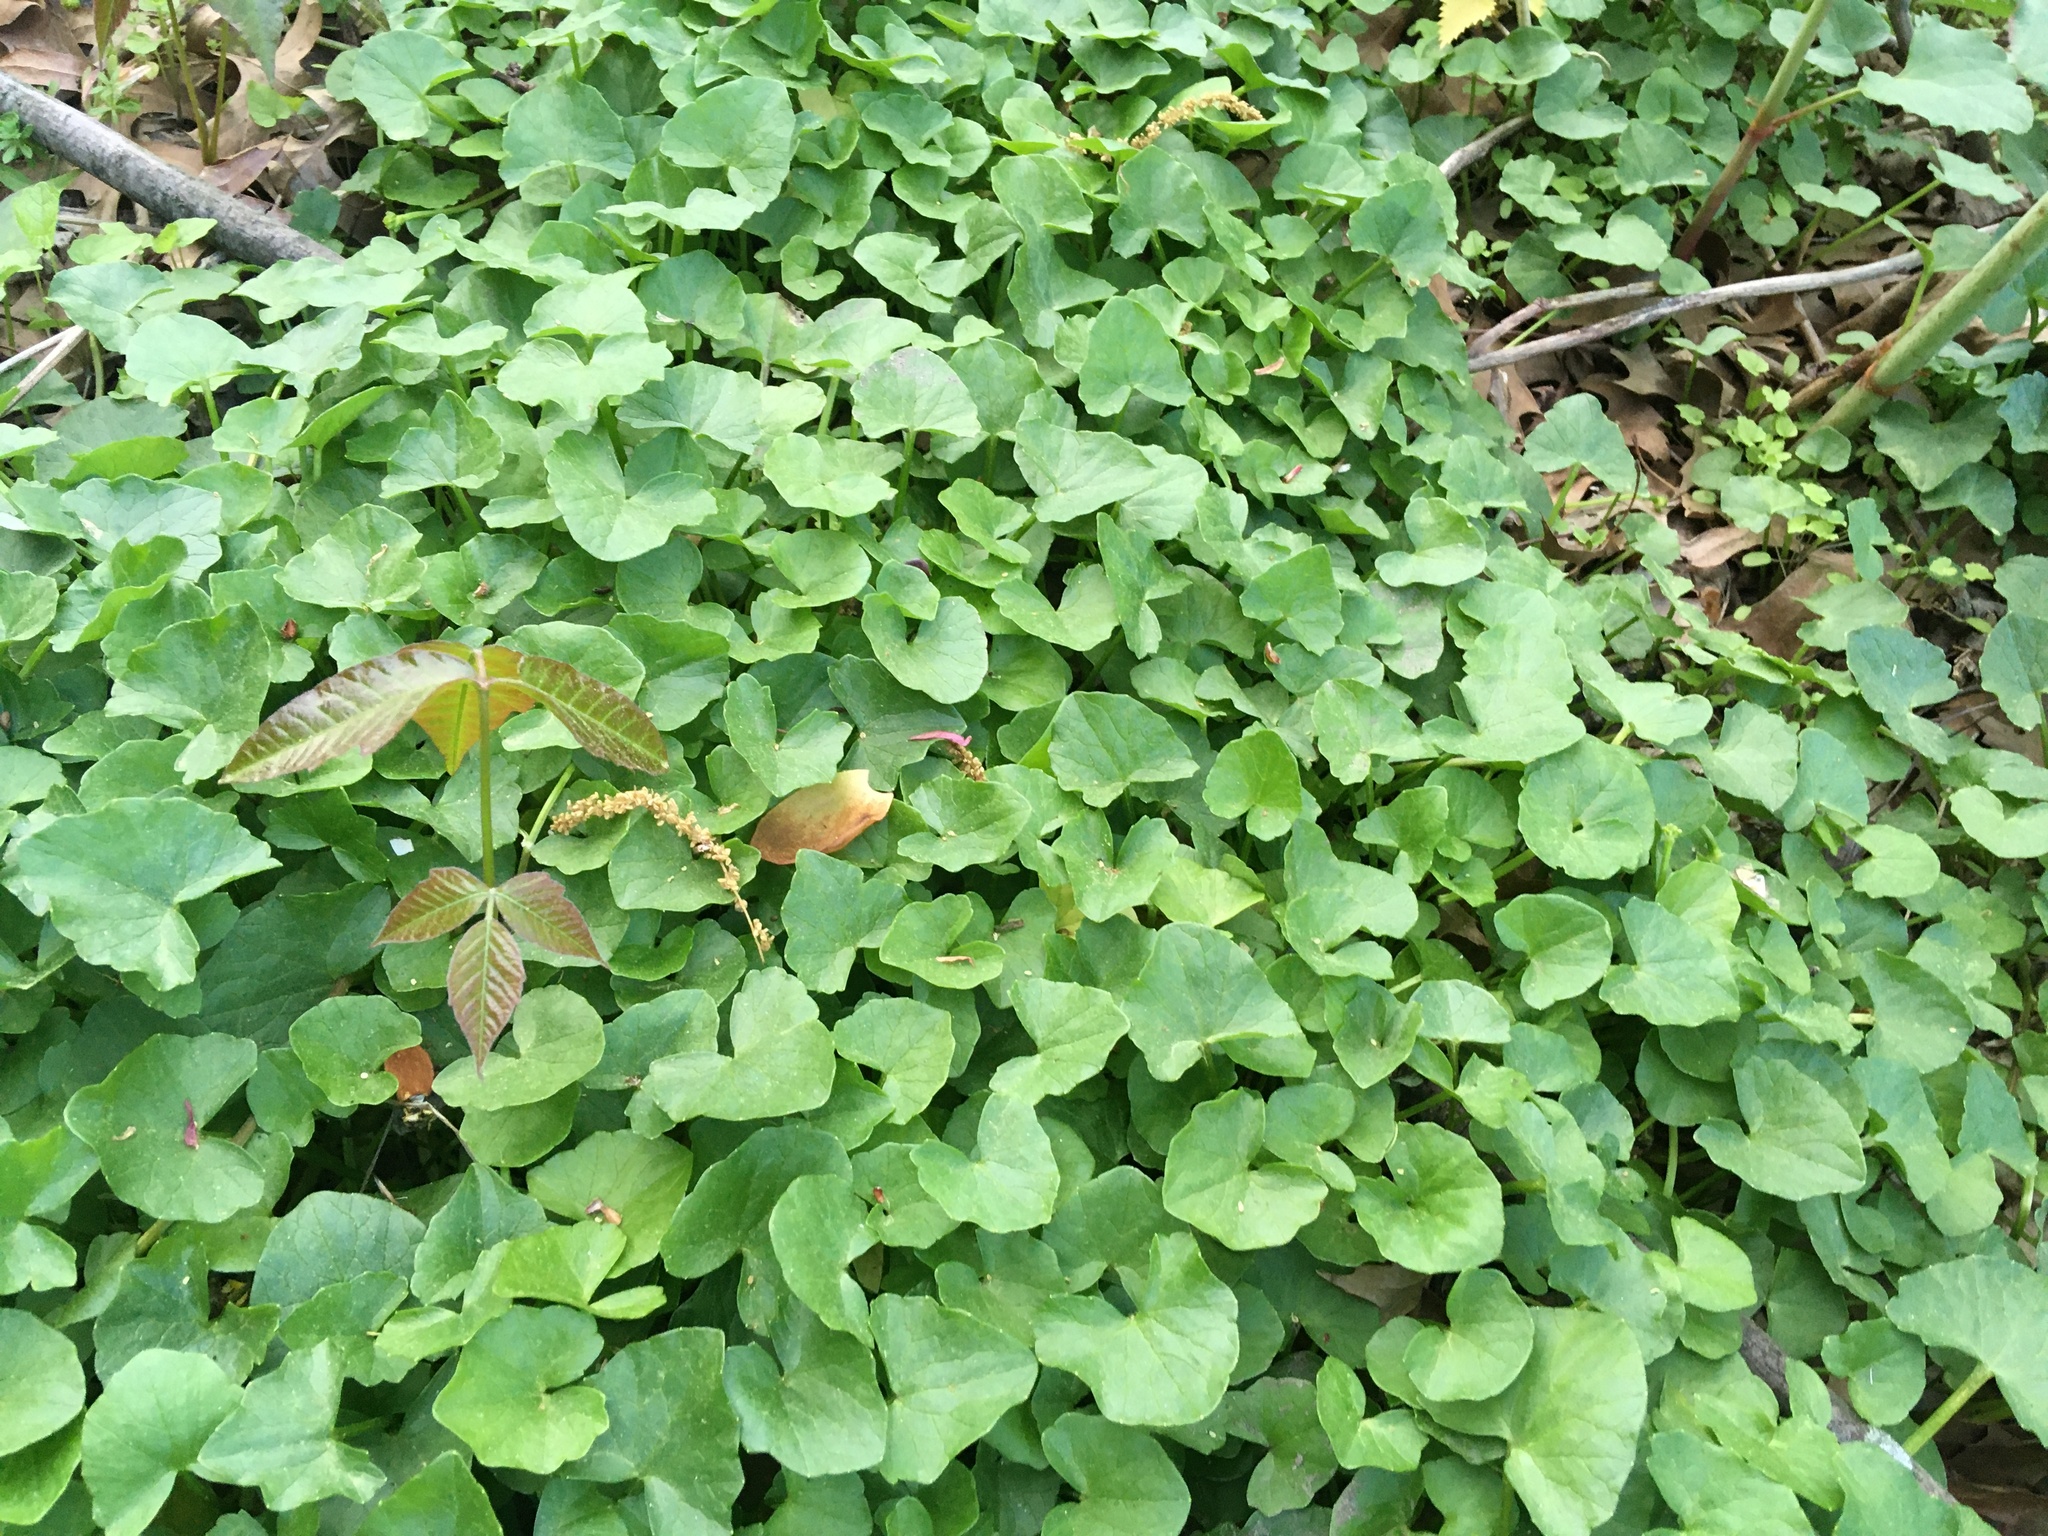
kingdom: Plantae
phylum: Tracheophyta
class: Magnoliopsida
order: Ranunculales
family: Ranunculaceae
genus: Ficaria
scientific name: Ficaria verna
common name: Lesser celandine
